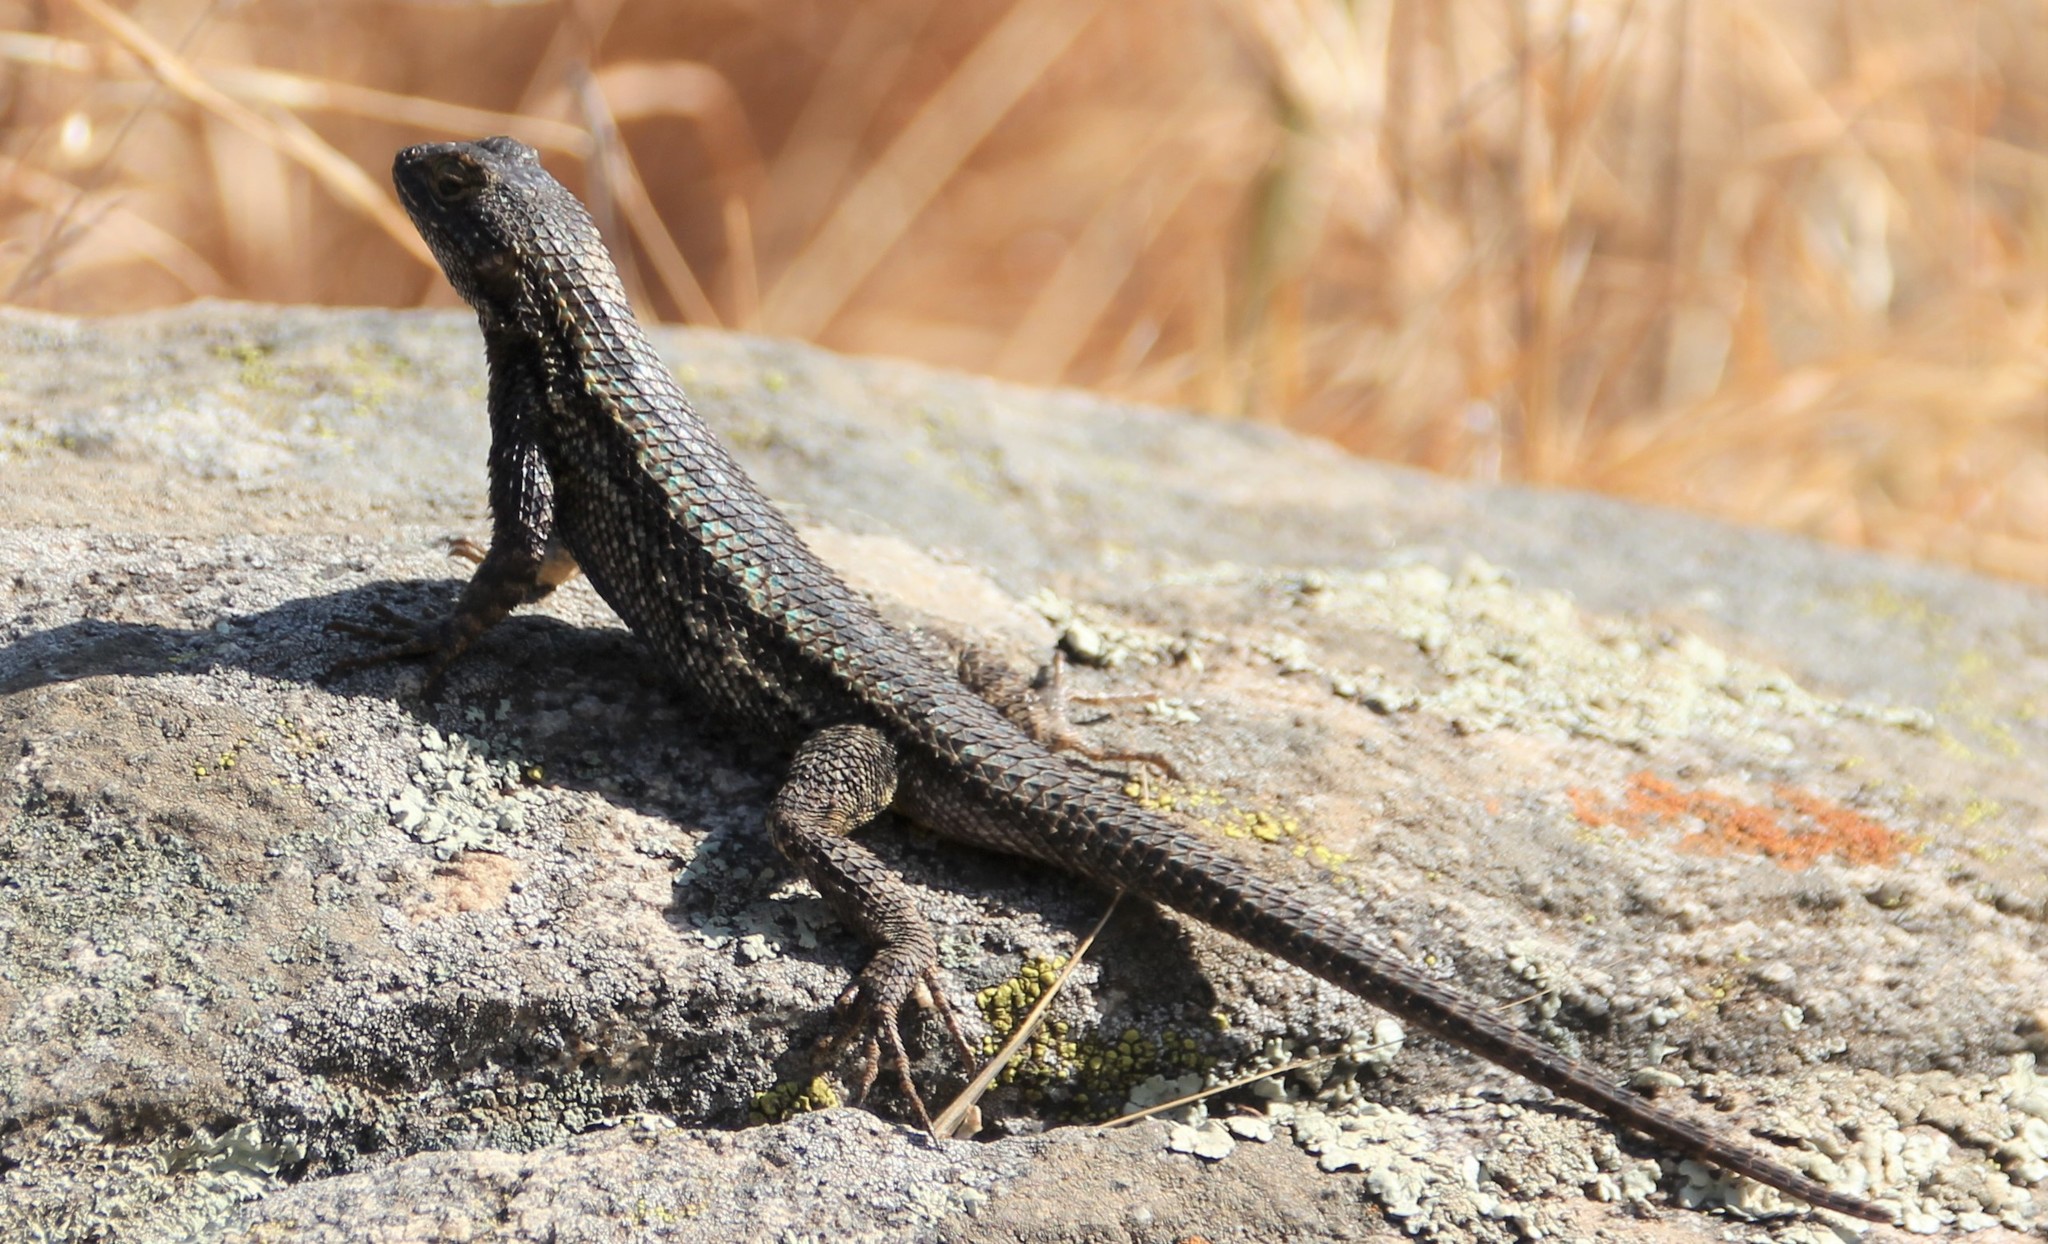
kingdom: Animalia
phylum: Chordata
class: Squamata
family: Phrynosomatidae
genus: Sceloporus
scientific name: Sceloporus occidentalis
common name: Western fence lizard
